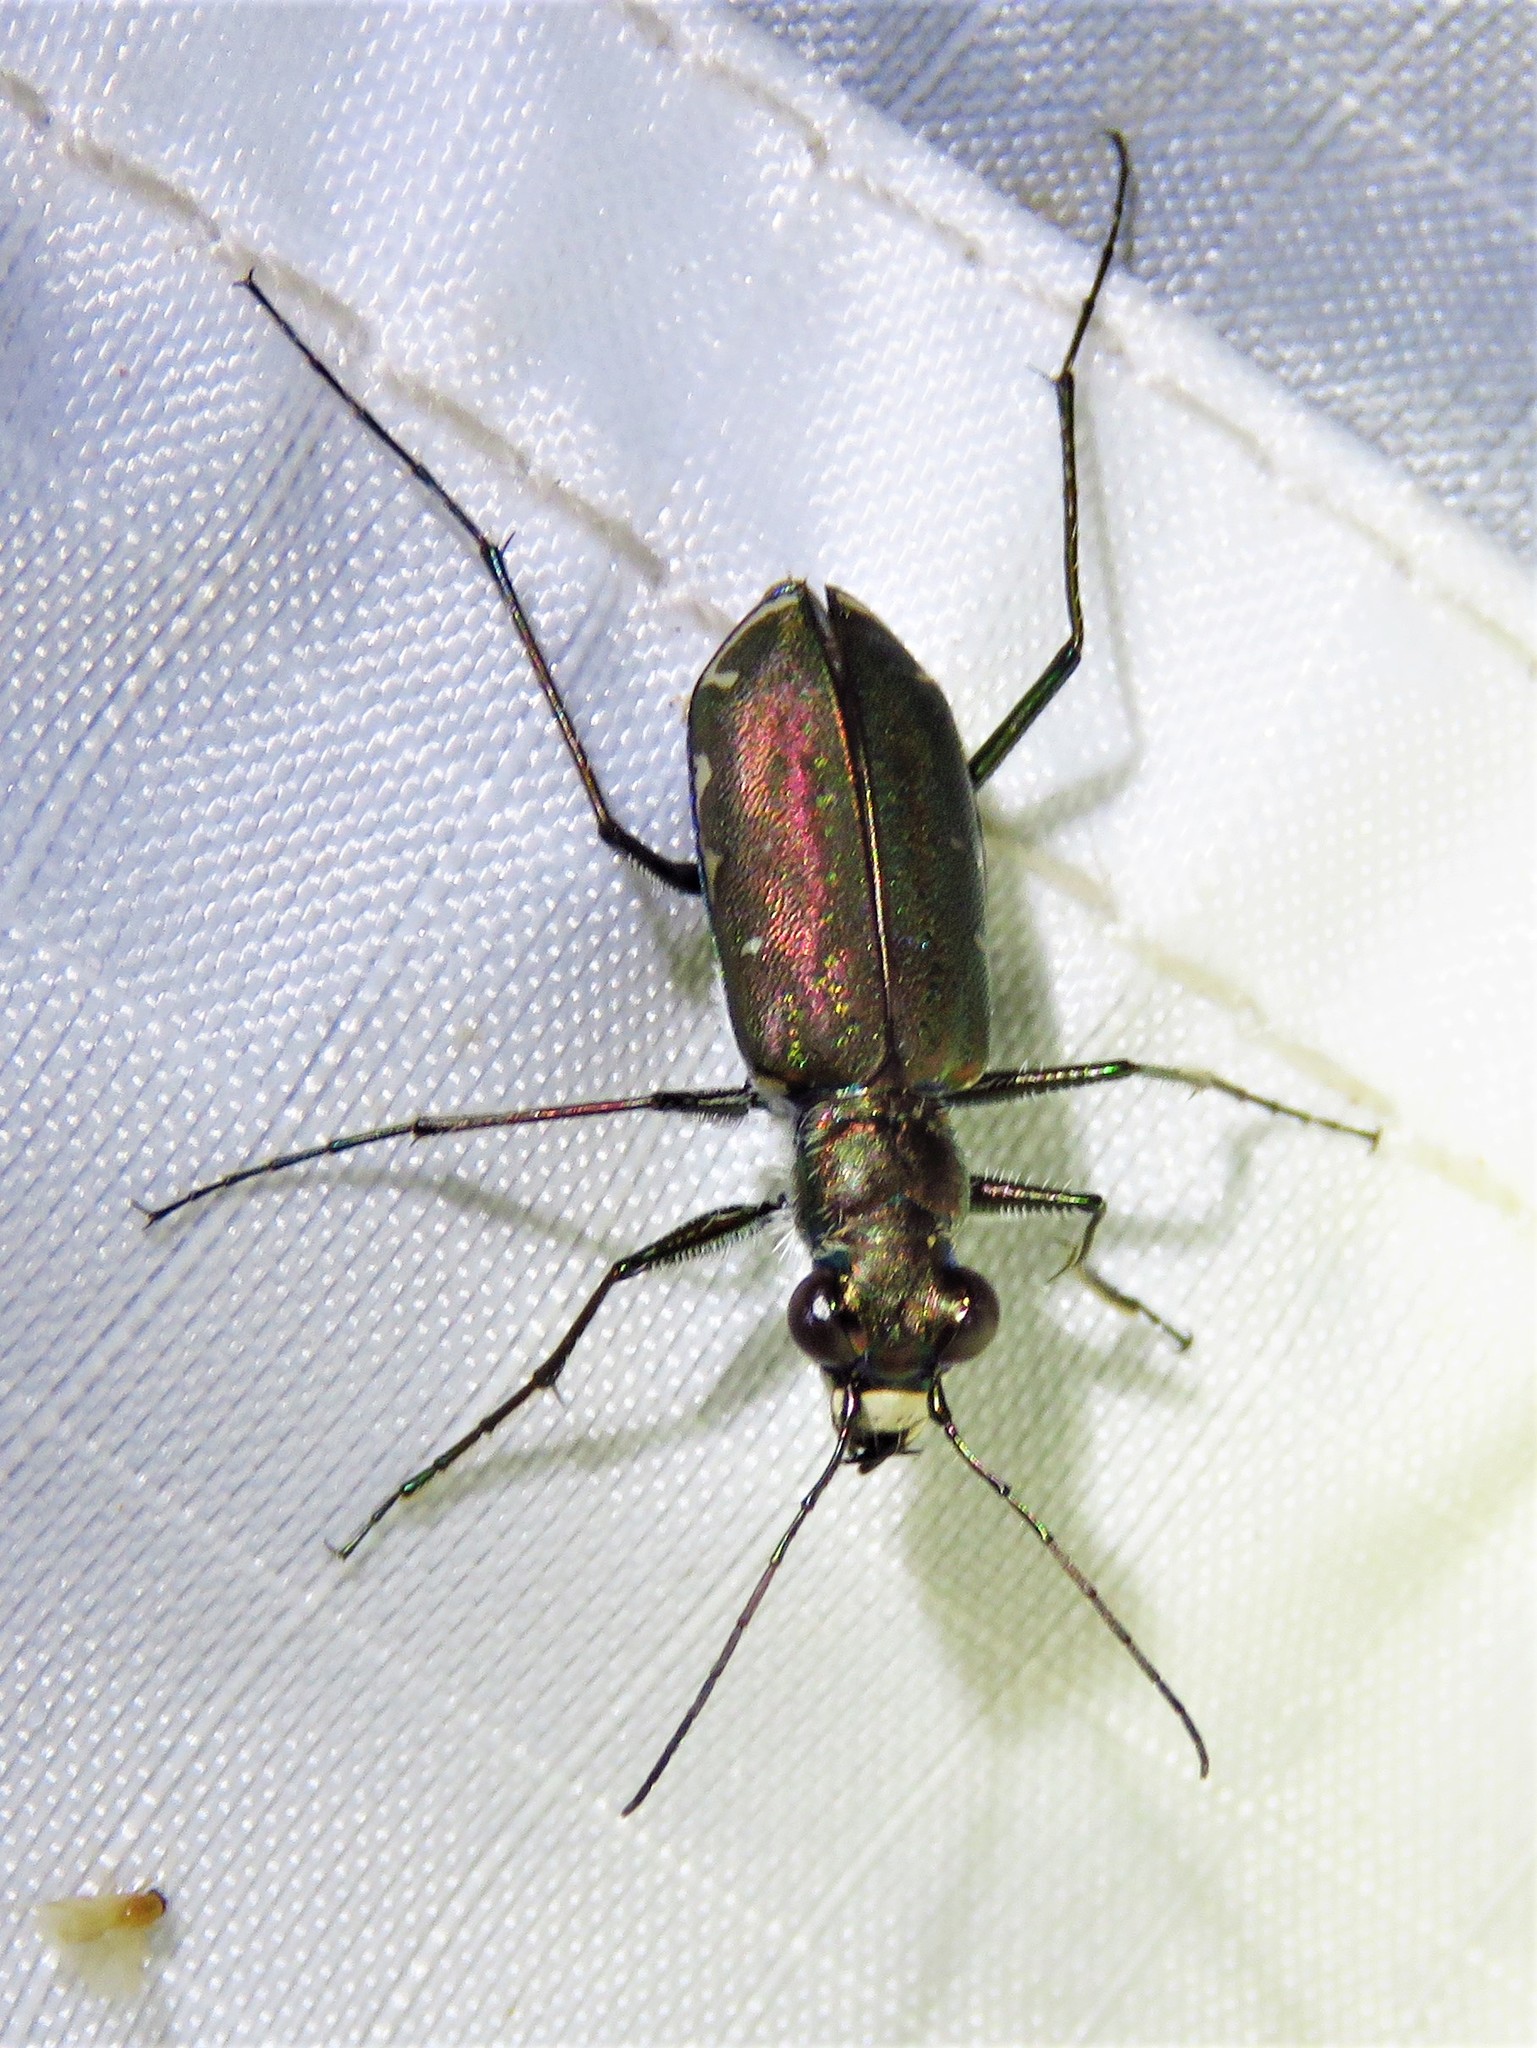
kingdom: Animalia
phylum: Arthropoda
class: Insecta
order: Coleoptera
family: Carabidae
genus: Cicindela
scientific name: Cicindela punctulata
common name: Punctured tiger beetle
